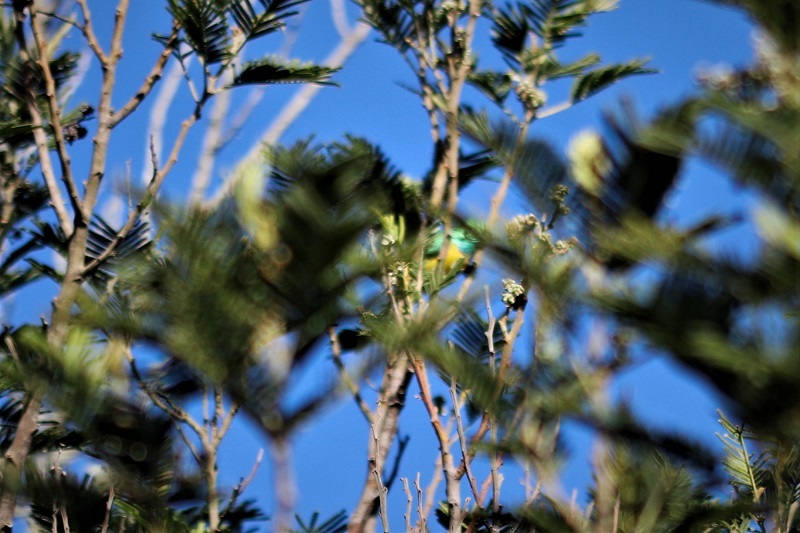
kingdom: Animalia
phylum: Chordata
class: Aves
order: Passeriformes
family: Nectariniidae
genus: Hedydipna
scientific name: Hedydipna collaris
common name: Collared sunbird
